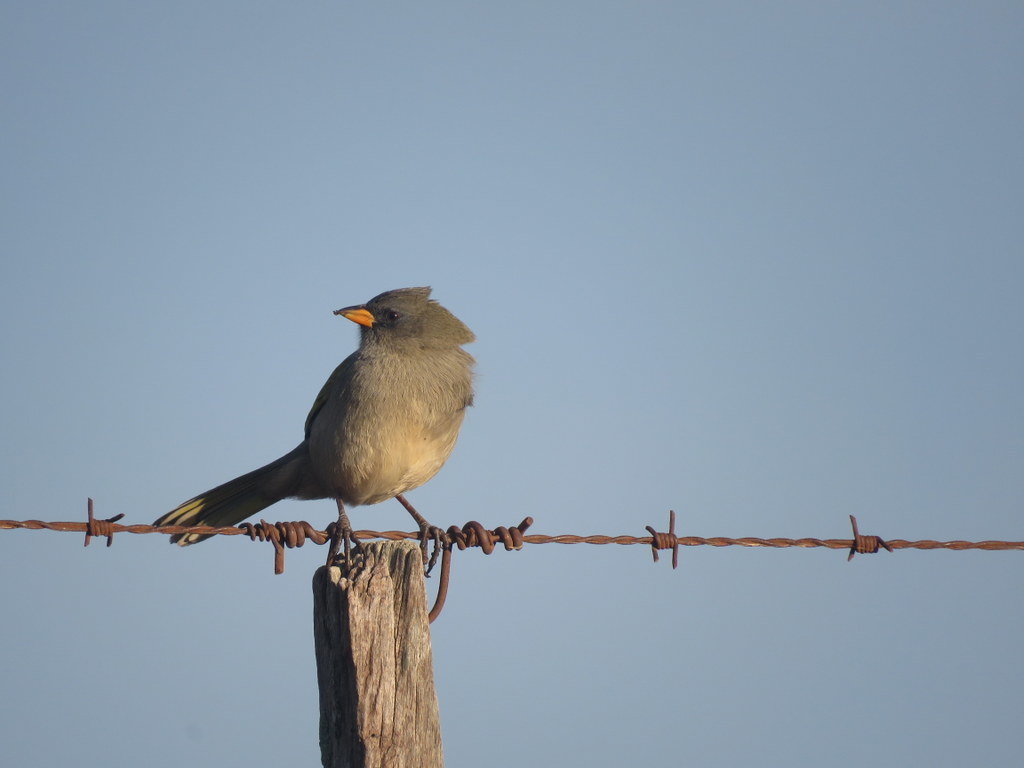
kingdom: Animalia
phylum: Chordata
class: Aves
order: Passeriformes
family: Thraupidae
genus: Embernagra
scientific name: Embernagra platensis
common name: Pampa finch
